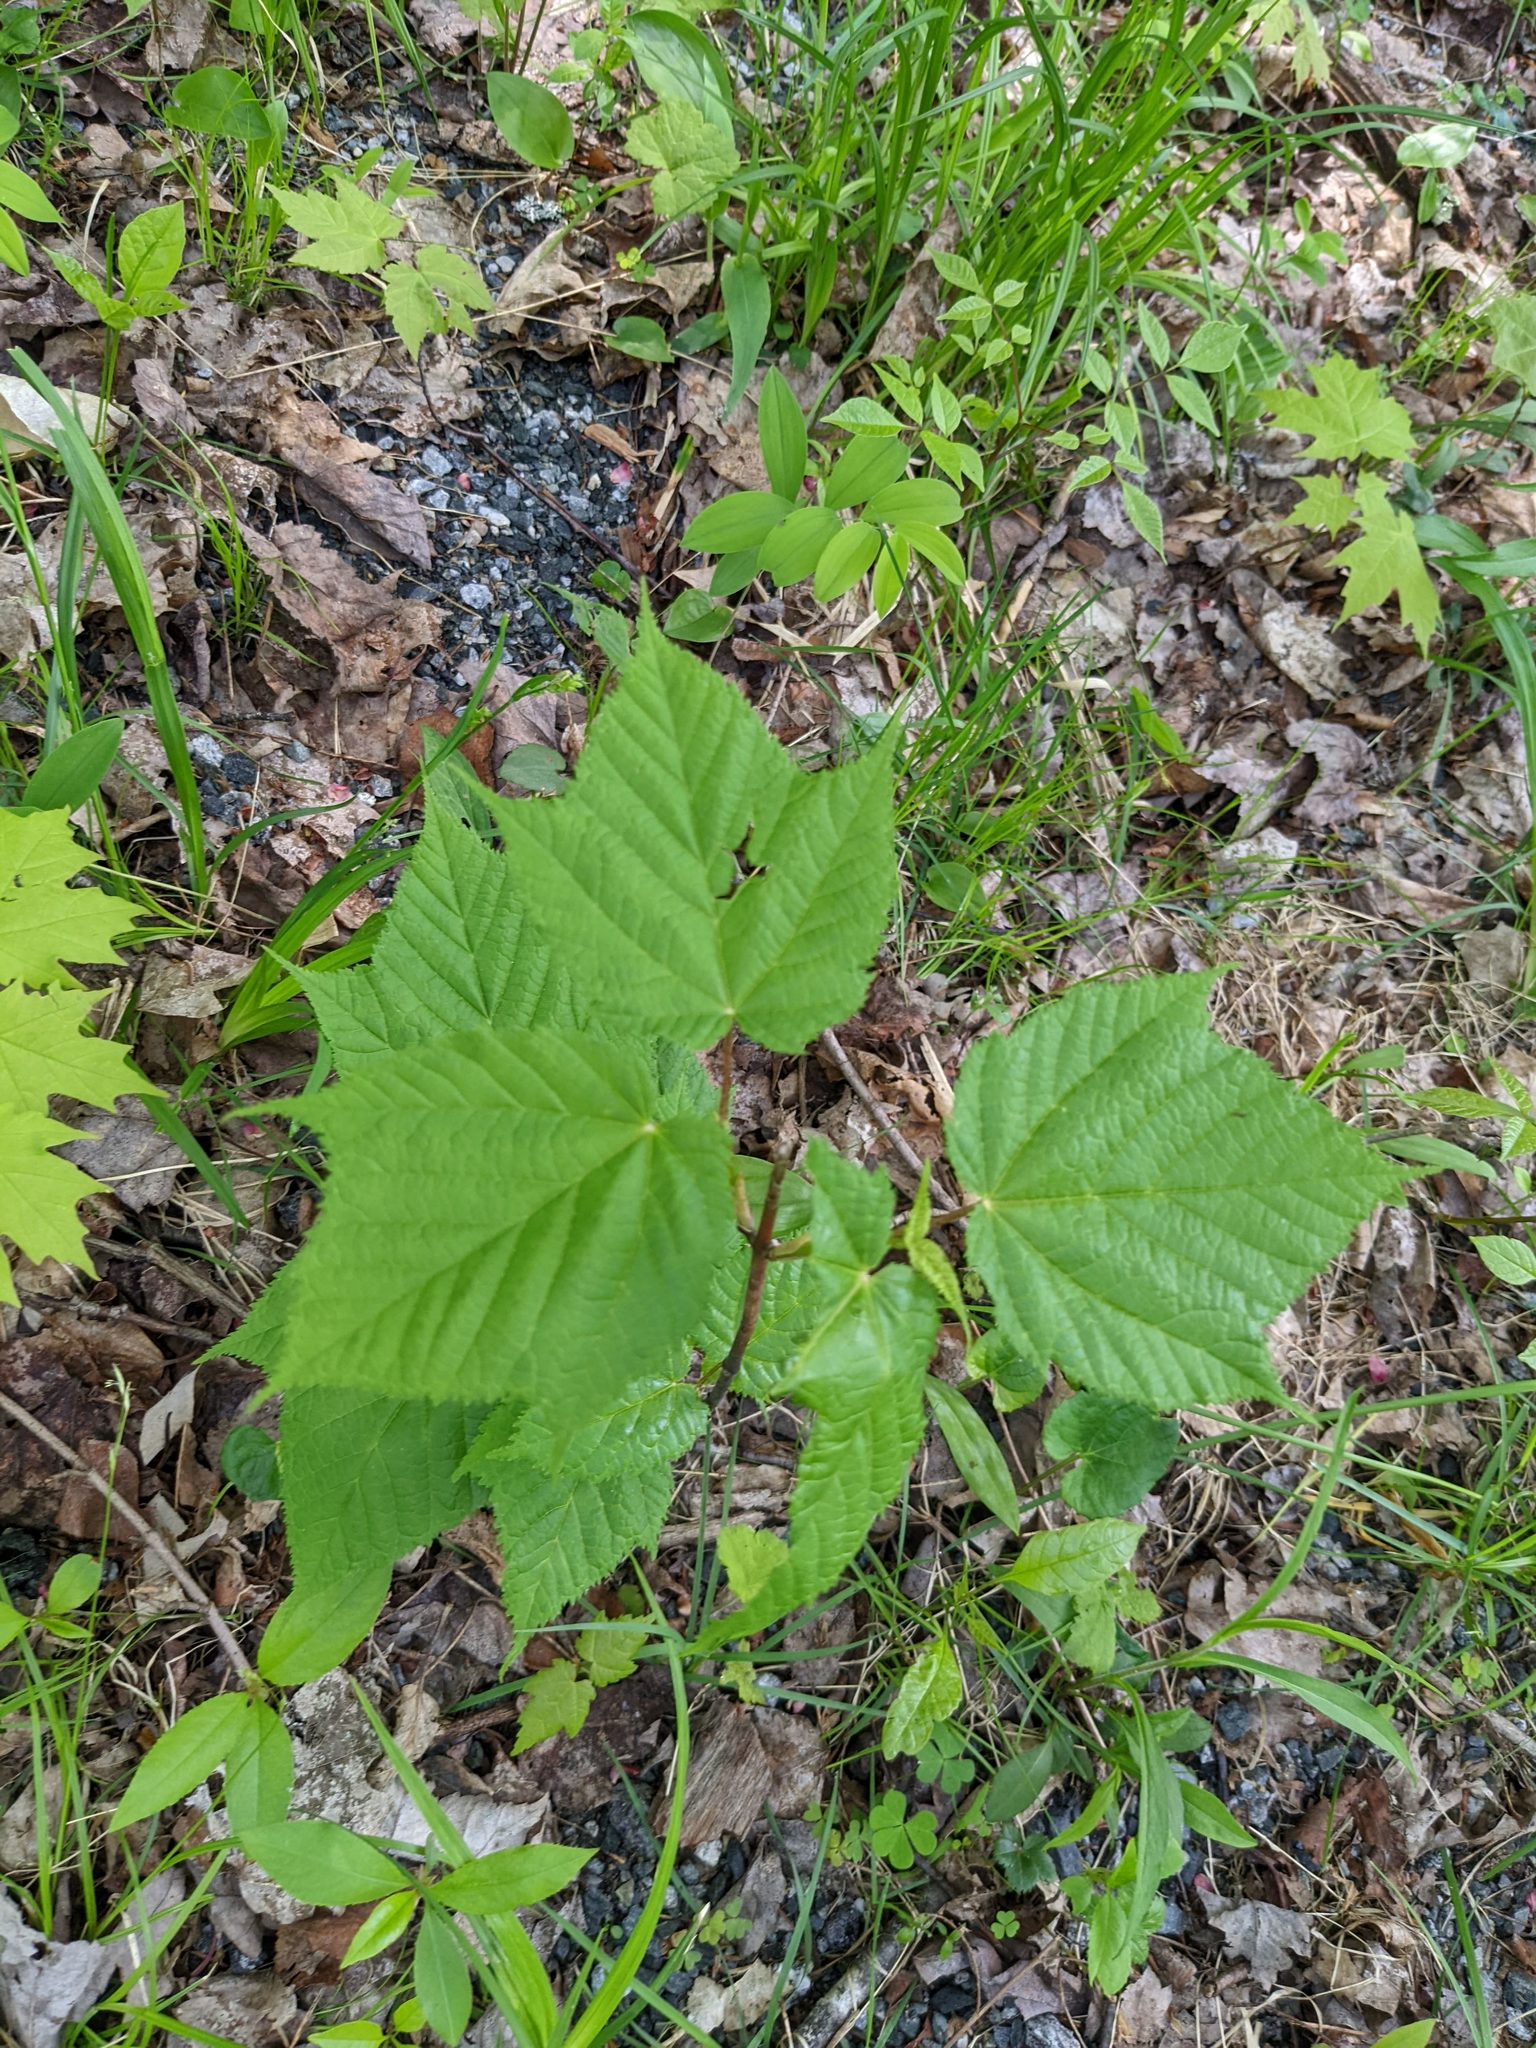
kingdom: Plantae
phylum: Tracheophyta
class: Magnoliopsida
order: Sapindales
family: Sapindaceae
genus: Acer
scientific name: Acer pensylvanicum
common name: Moosewood
